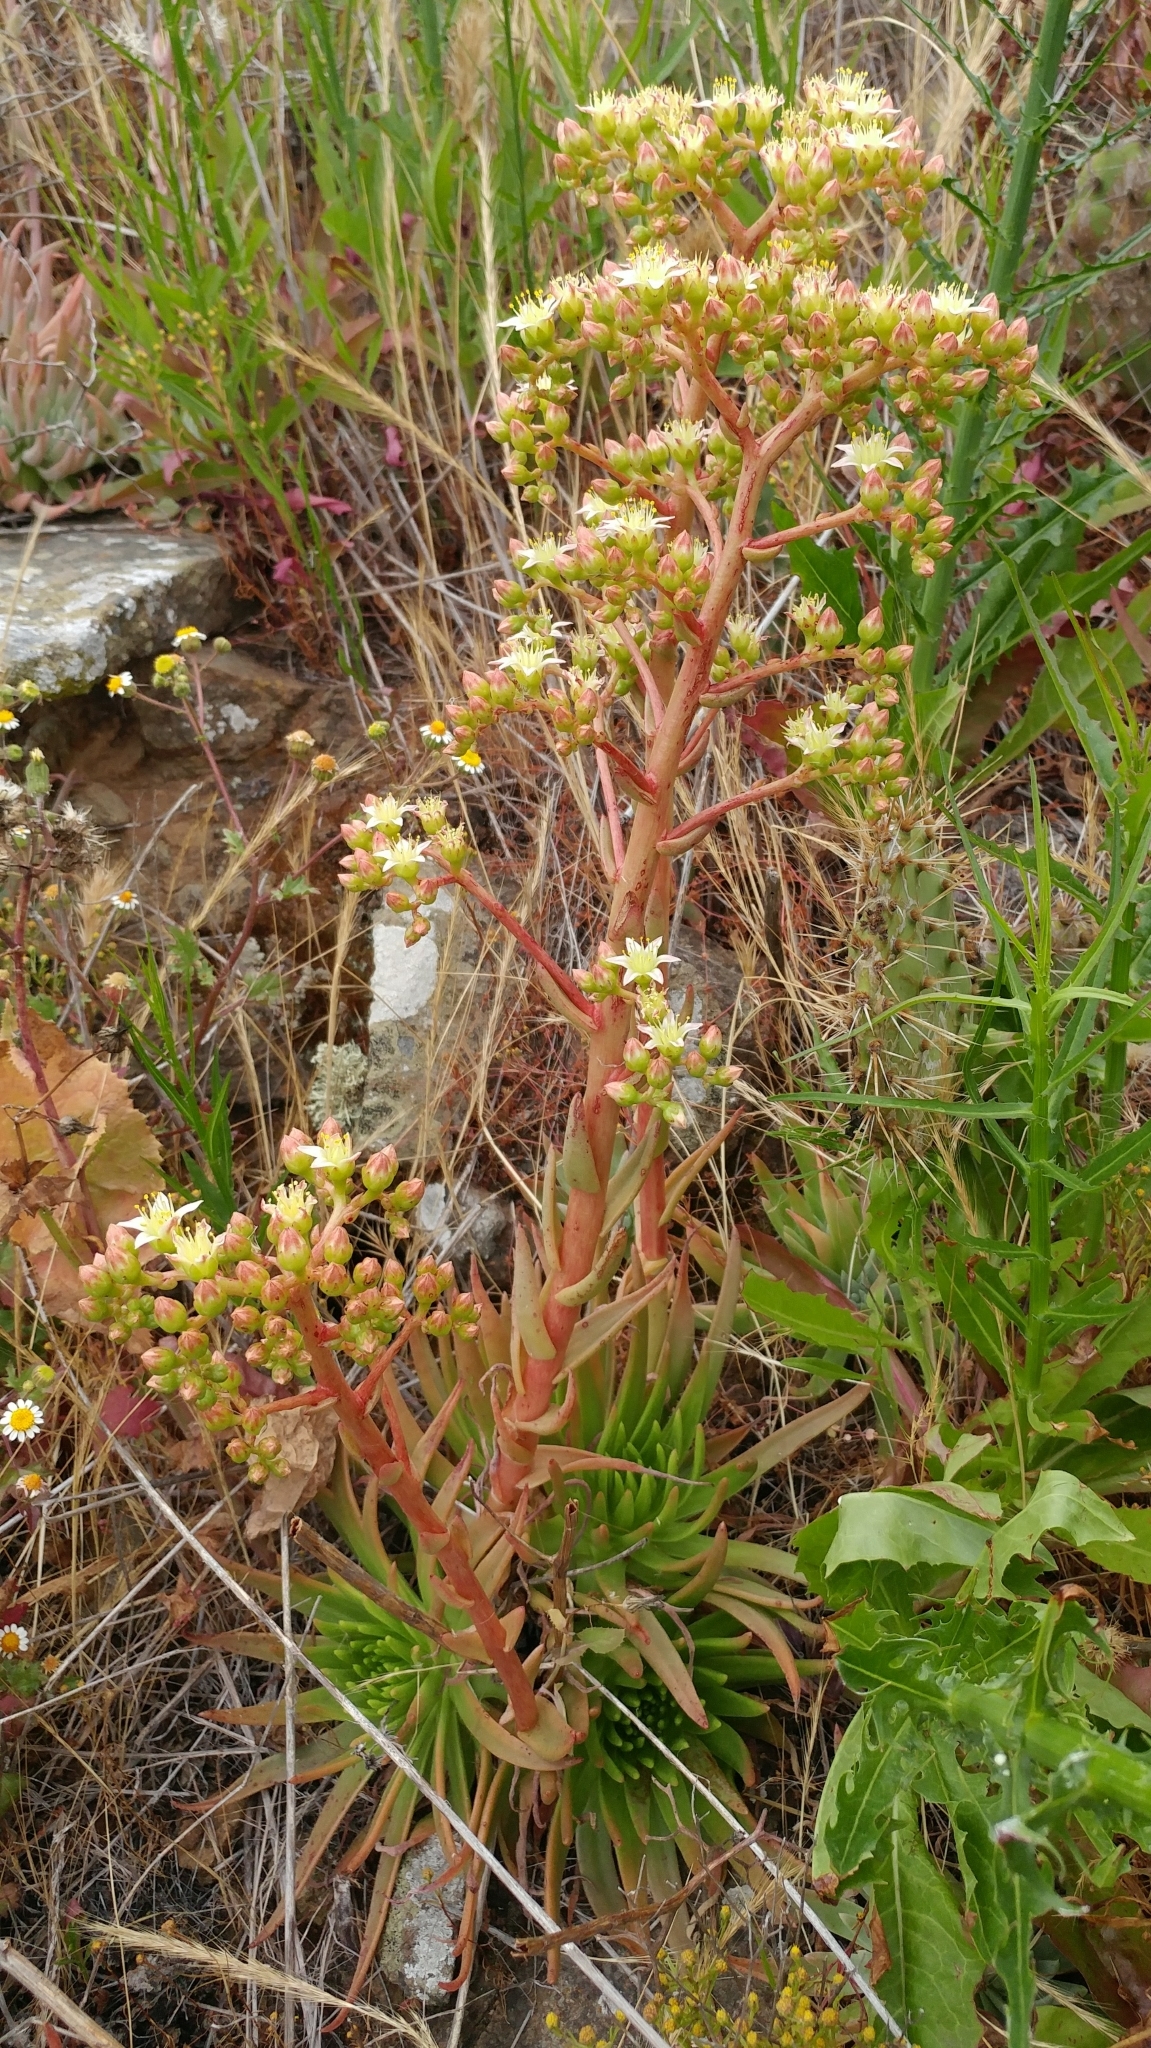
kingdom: Plantae
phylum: Tracheophyta
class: Magnoliopsida
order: Saxifragales
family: Crassulaceae
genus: Dudleya
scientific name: Dudleya virens
